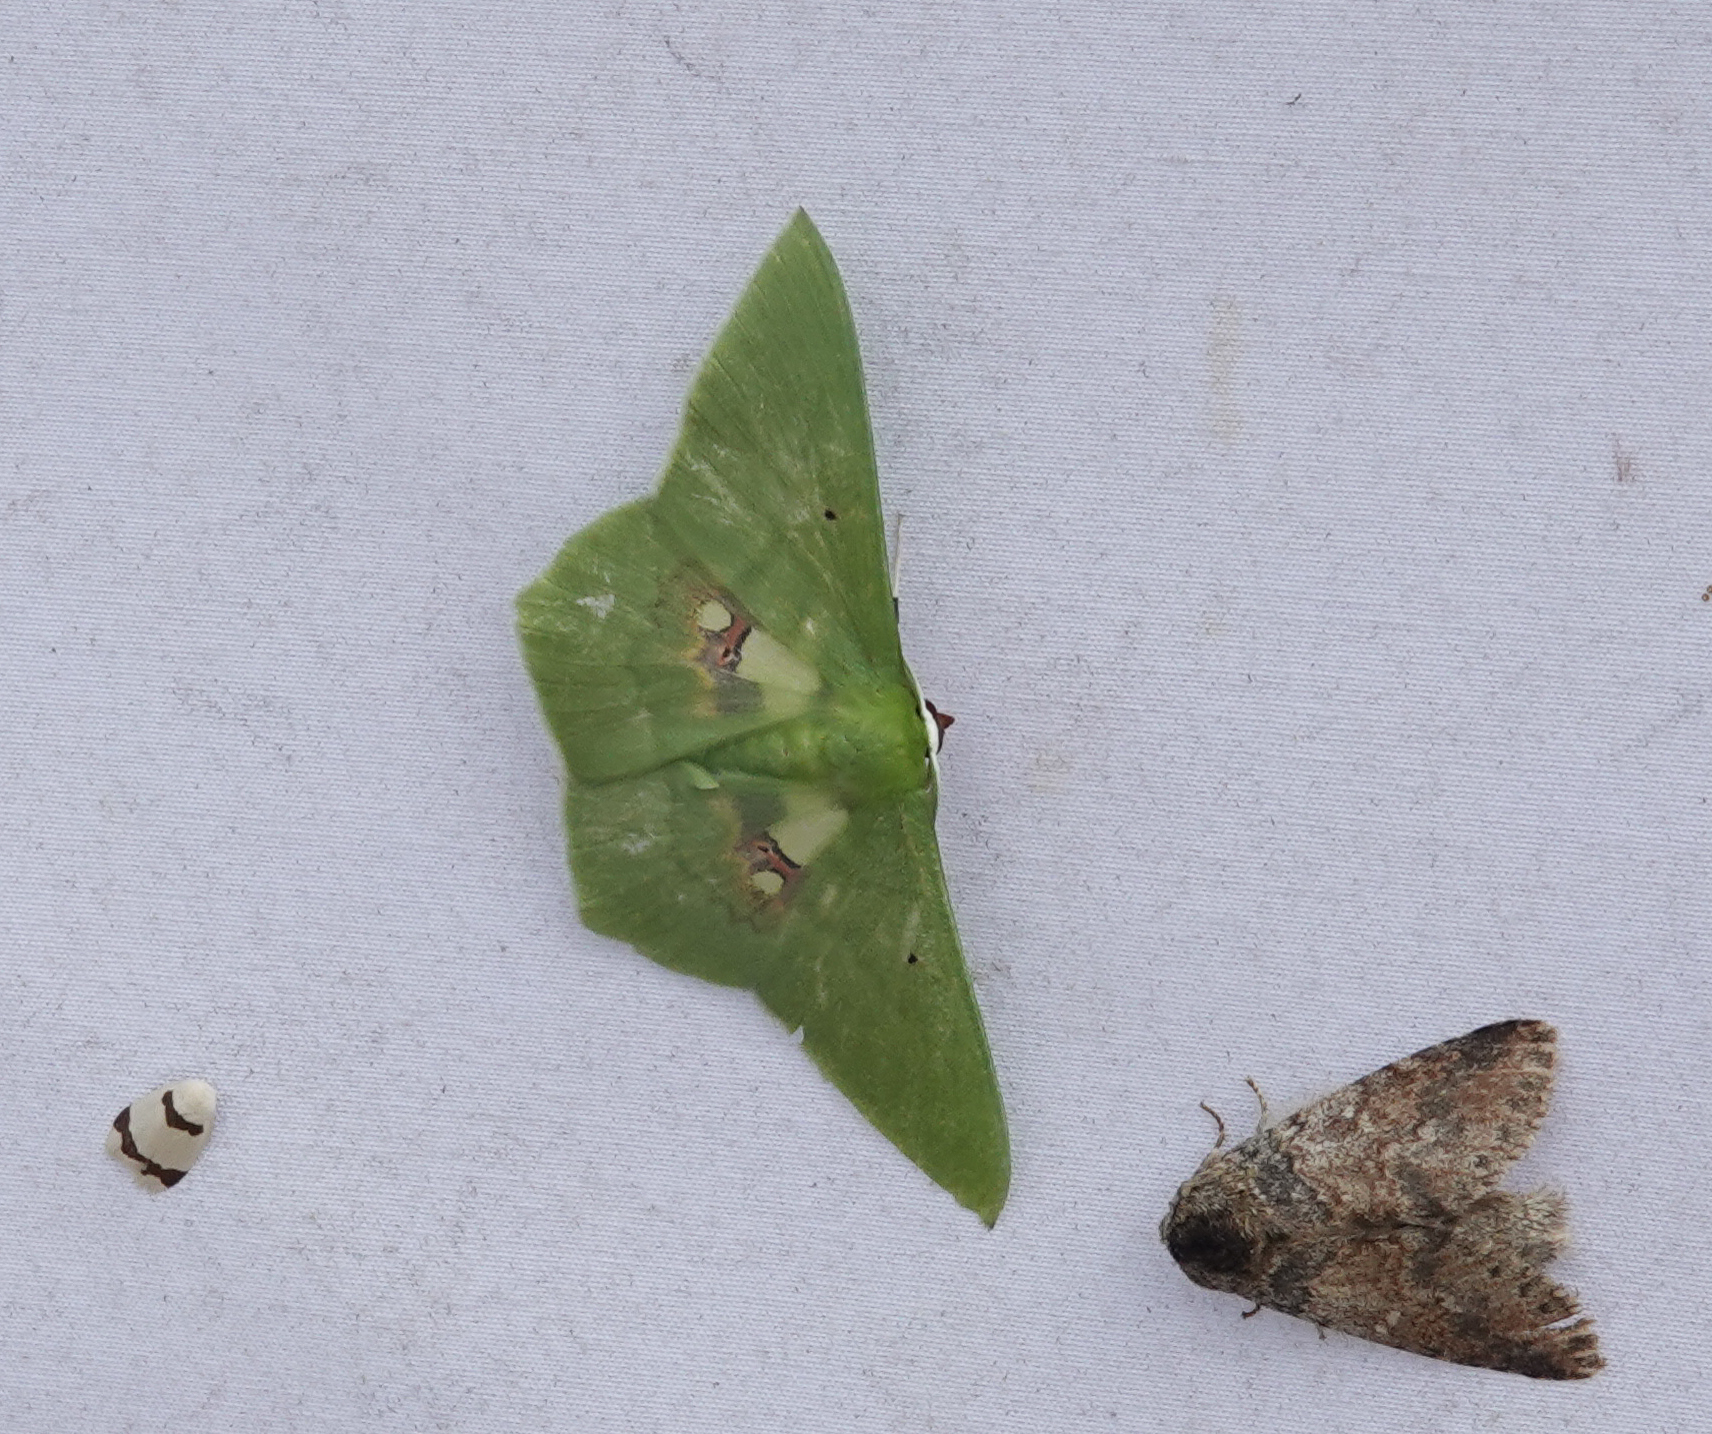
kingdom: Animalia
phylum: Arthropoda
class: Insecta
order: Lepidoptera
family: Geometridae
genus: Aporandria
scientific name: Aporandria specularia
